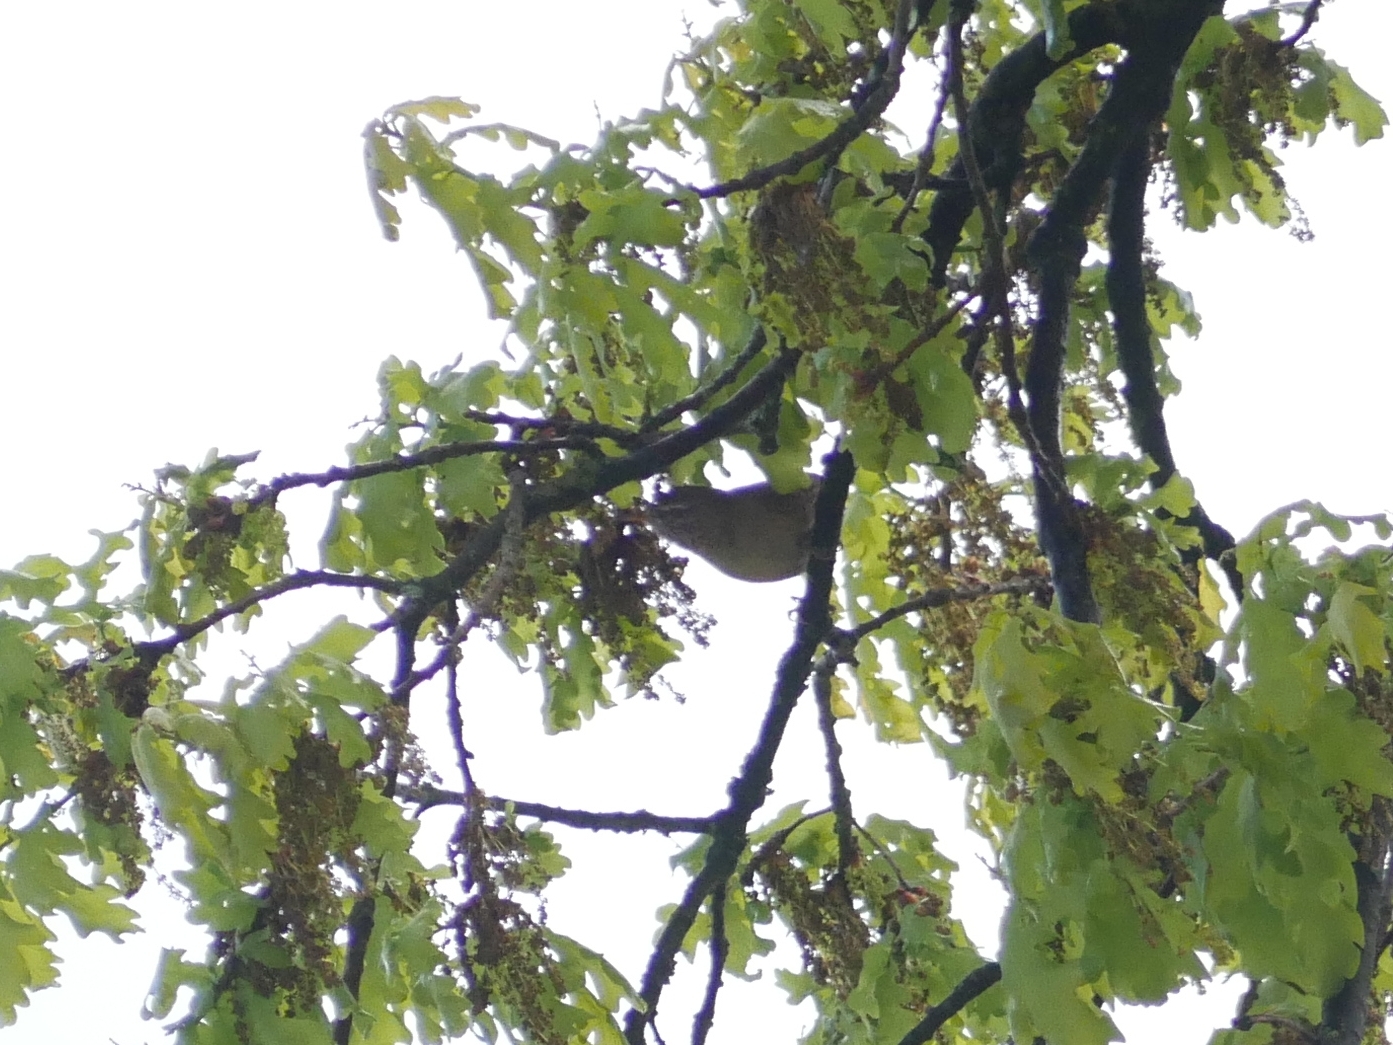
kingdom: Animalia
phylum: Chordata
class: Aves
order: Passeriformes
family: Troglodytidae
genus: Troglodytes
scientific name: Troglodytes troglodytes
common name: Eurasian wren
